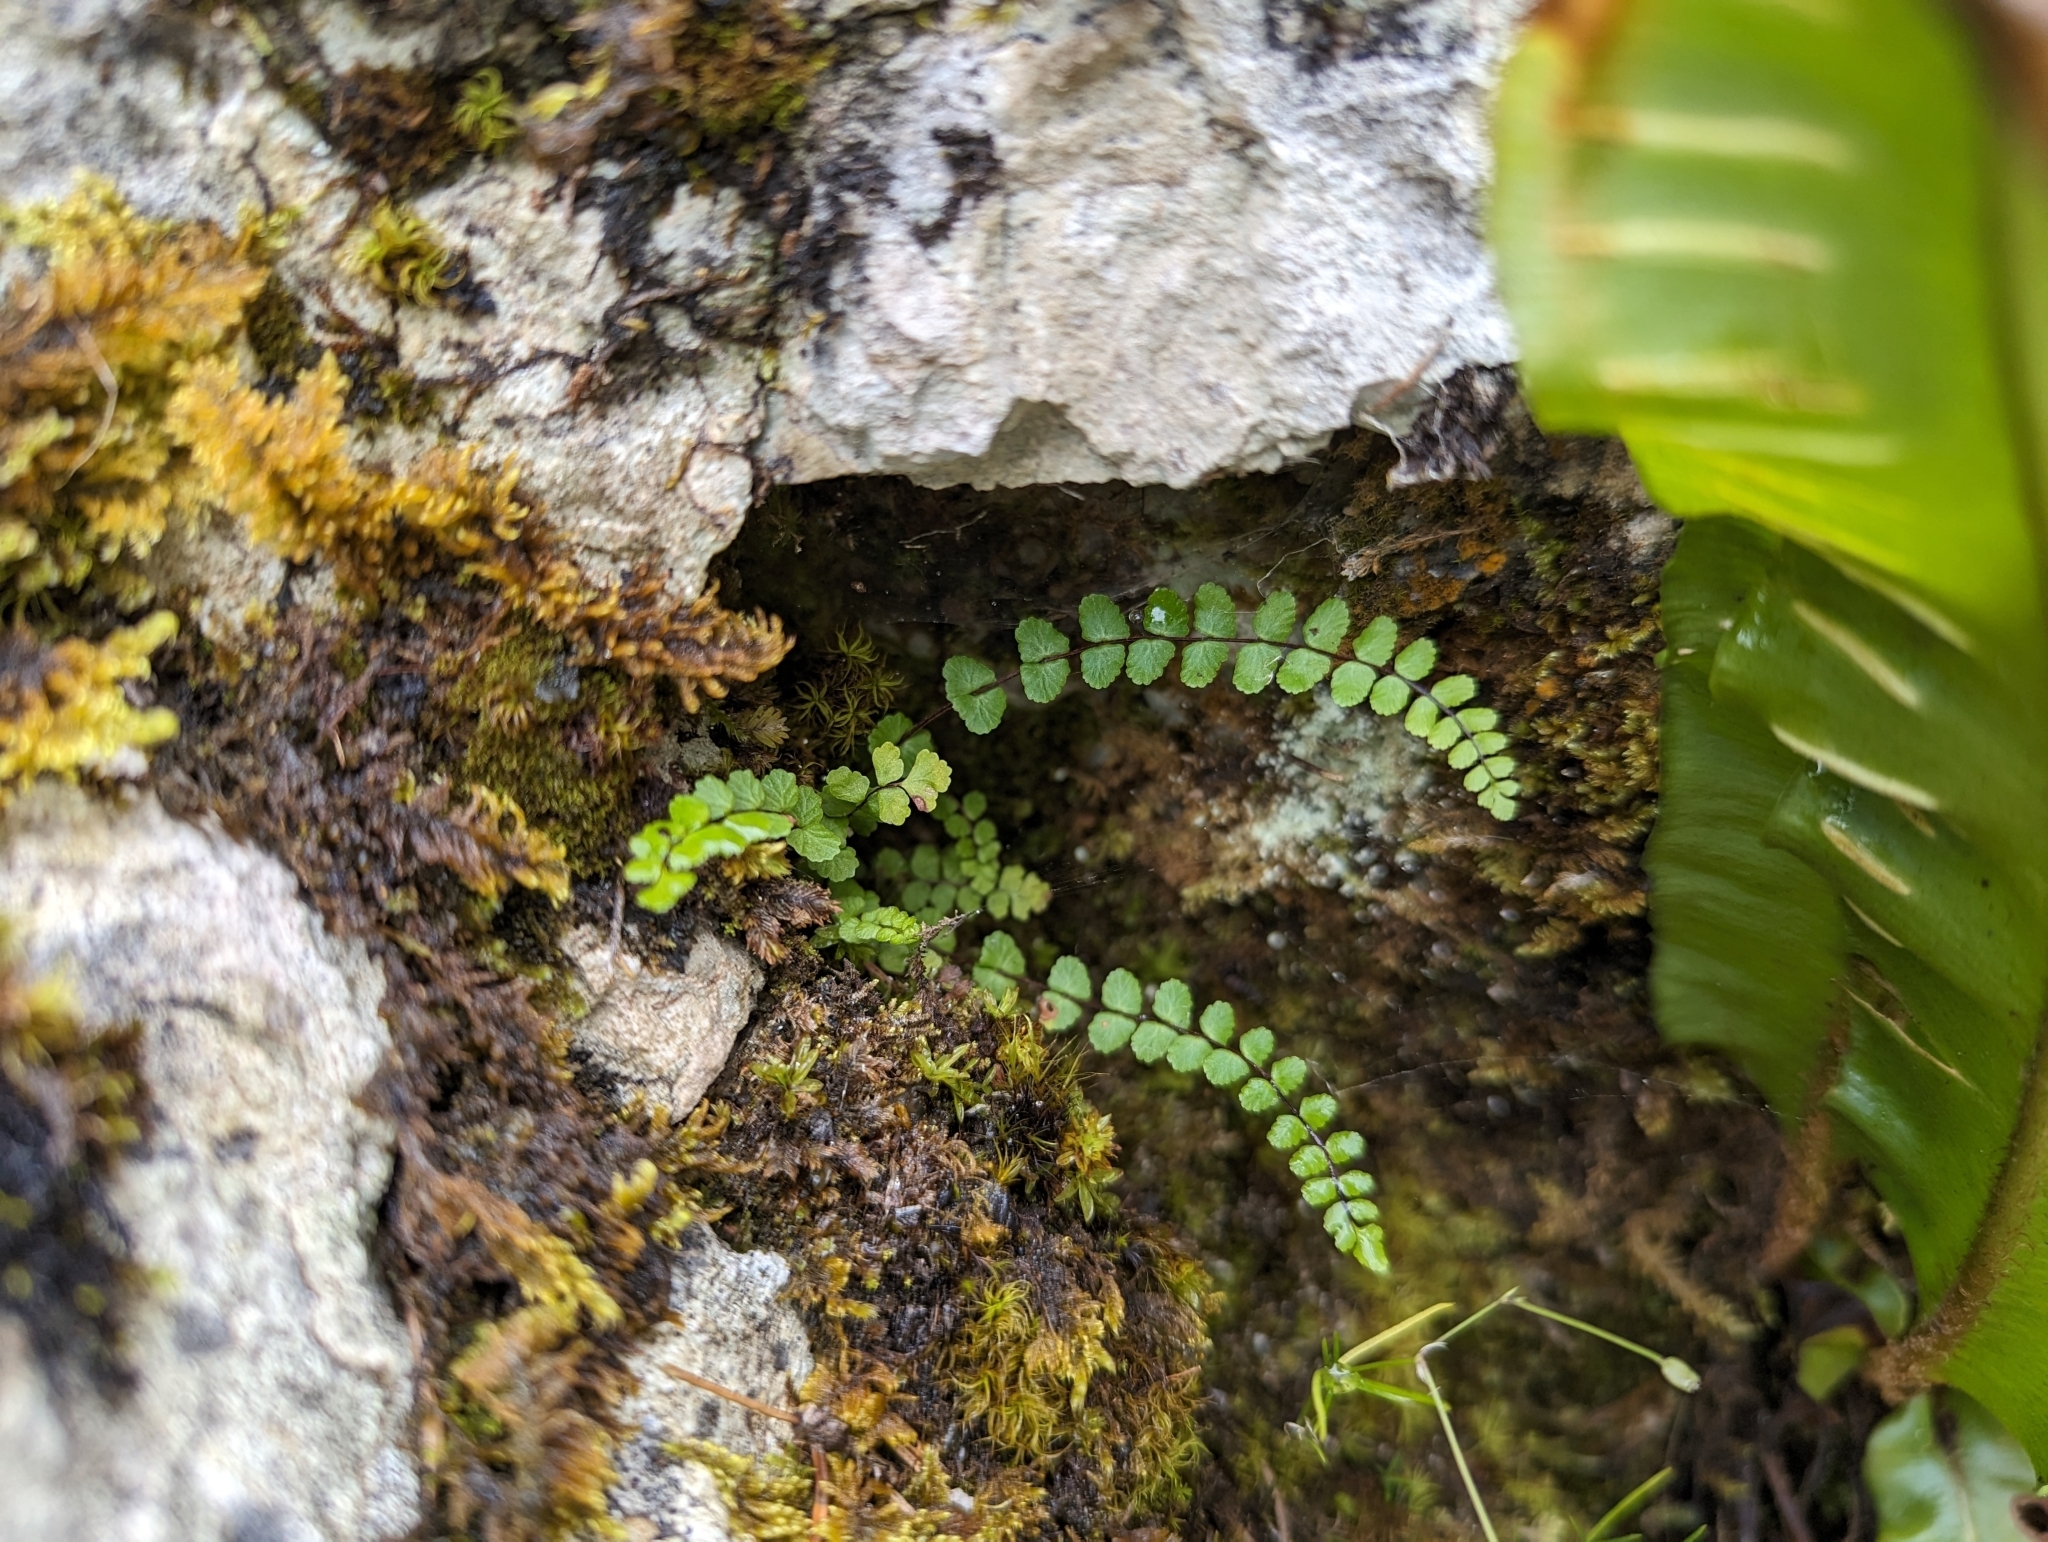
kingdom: Plantae
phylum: Tracheophyta
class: Polypodiopsida
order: Polypodiales
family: Aspleniaceae
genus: Asplenium
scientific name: Asplenium trichomanes
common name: Maidenhair spleenwort
